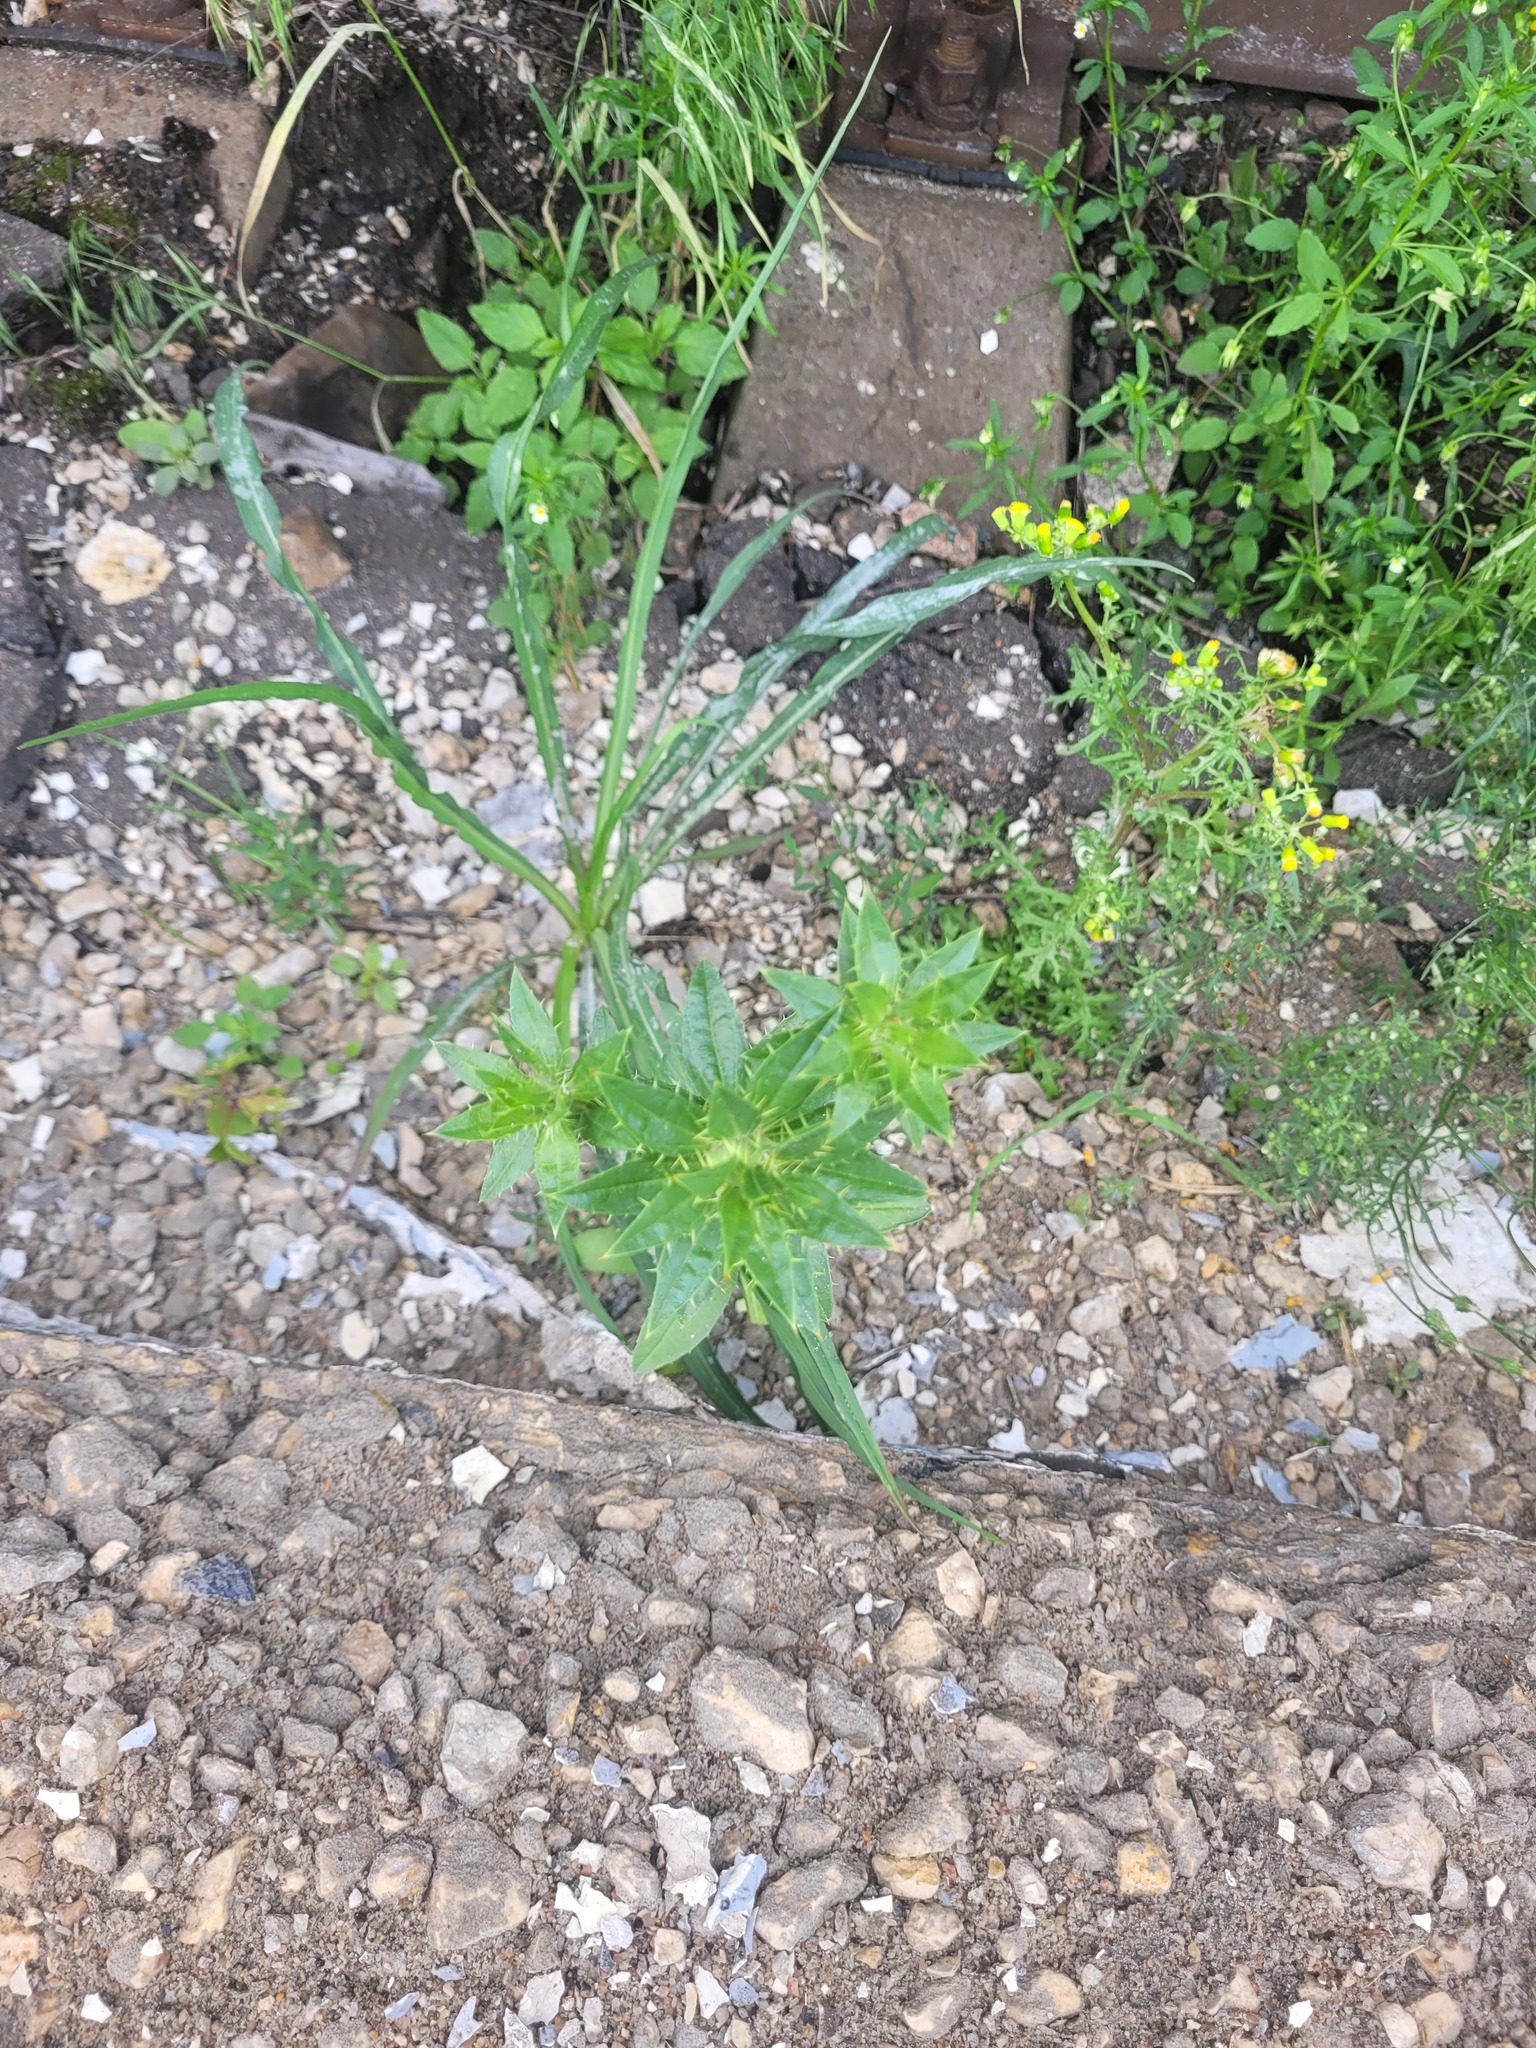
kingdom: Plantae
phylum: Tracheophyta
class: Magnoliopsida
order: Asterales
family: Asteraceae
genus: Carthamus
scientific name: Carthamus tinctorius
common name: Safflower
